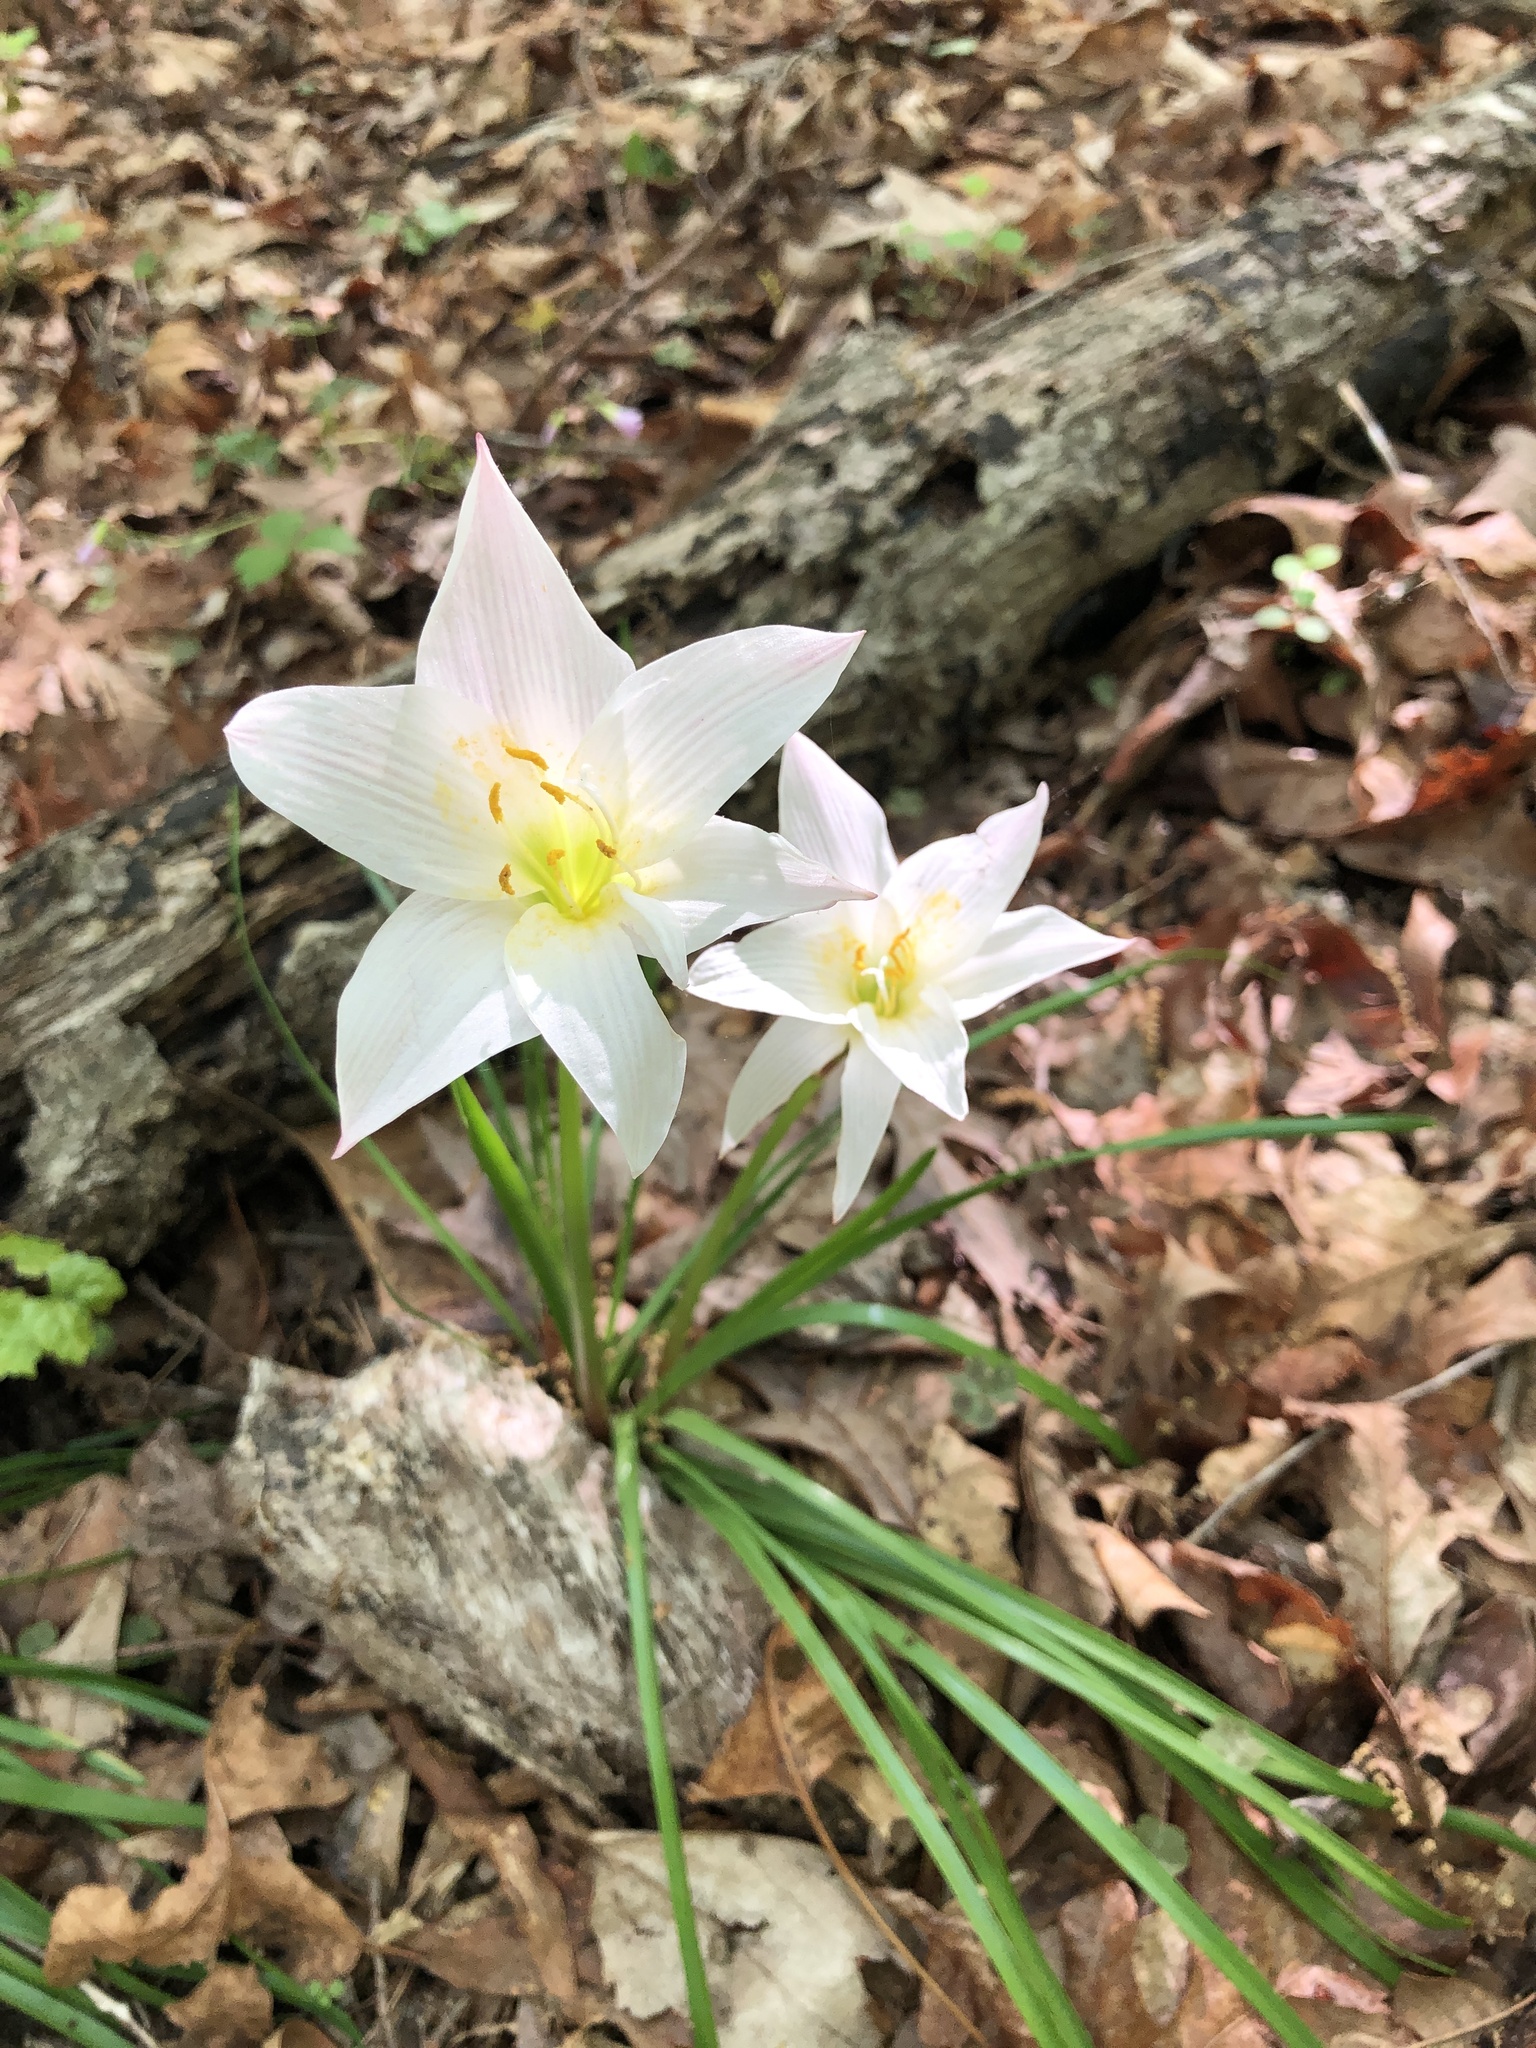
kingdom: Plantae
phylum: Tracheophyta
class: Liliopsida
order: Asparagales
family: Amaryllidaceae
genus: Zephyranthes
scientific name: Zephyranthes atamasco
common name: Atamasco lily
